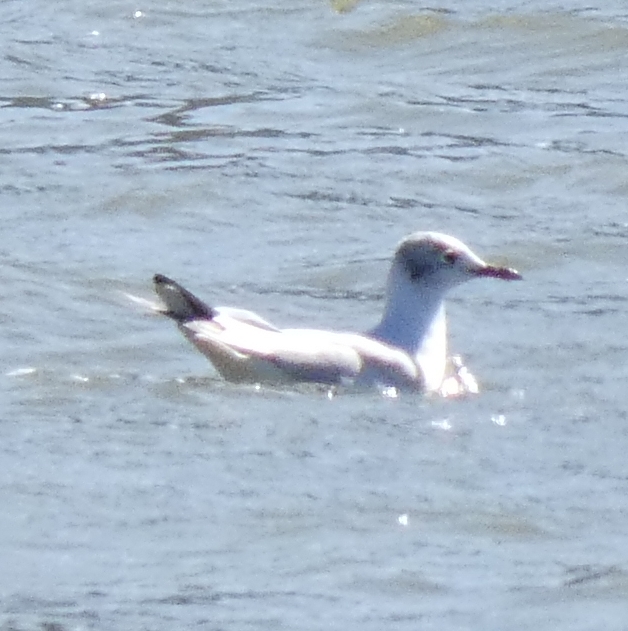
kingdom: Animalia
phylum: Chordata
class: Aves
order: Charadriiformes
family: Laridae
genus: Chroicocephalus
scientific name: Chroicocephalus ridibundus
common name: Black-headed gull
